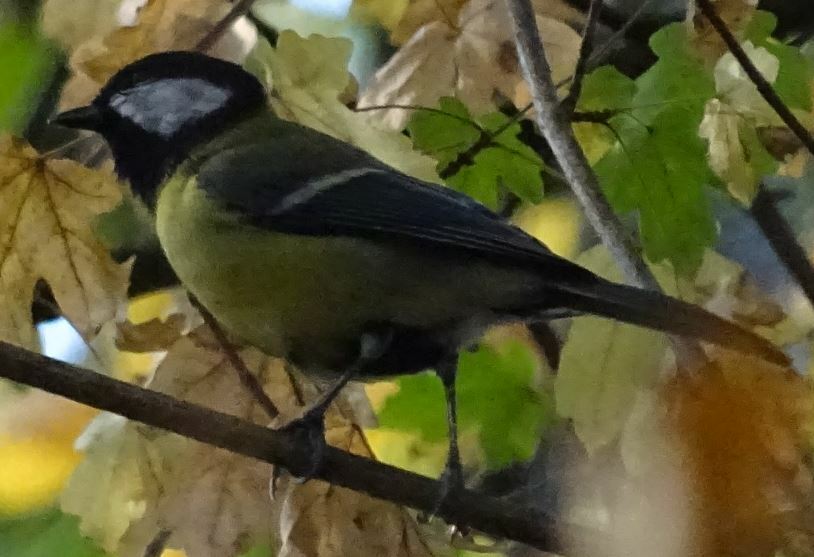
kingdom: Animalia
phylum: Chordata
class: Aves
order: Passeriformes
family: Paridae
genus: Parus
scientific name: Parus major
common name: Great tit
